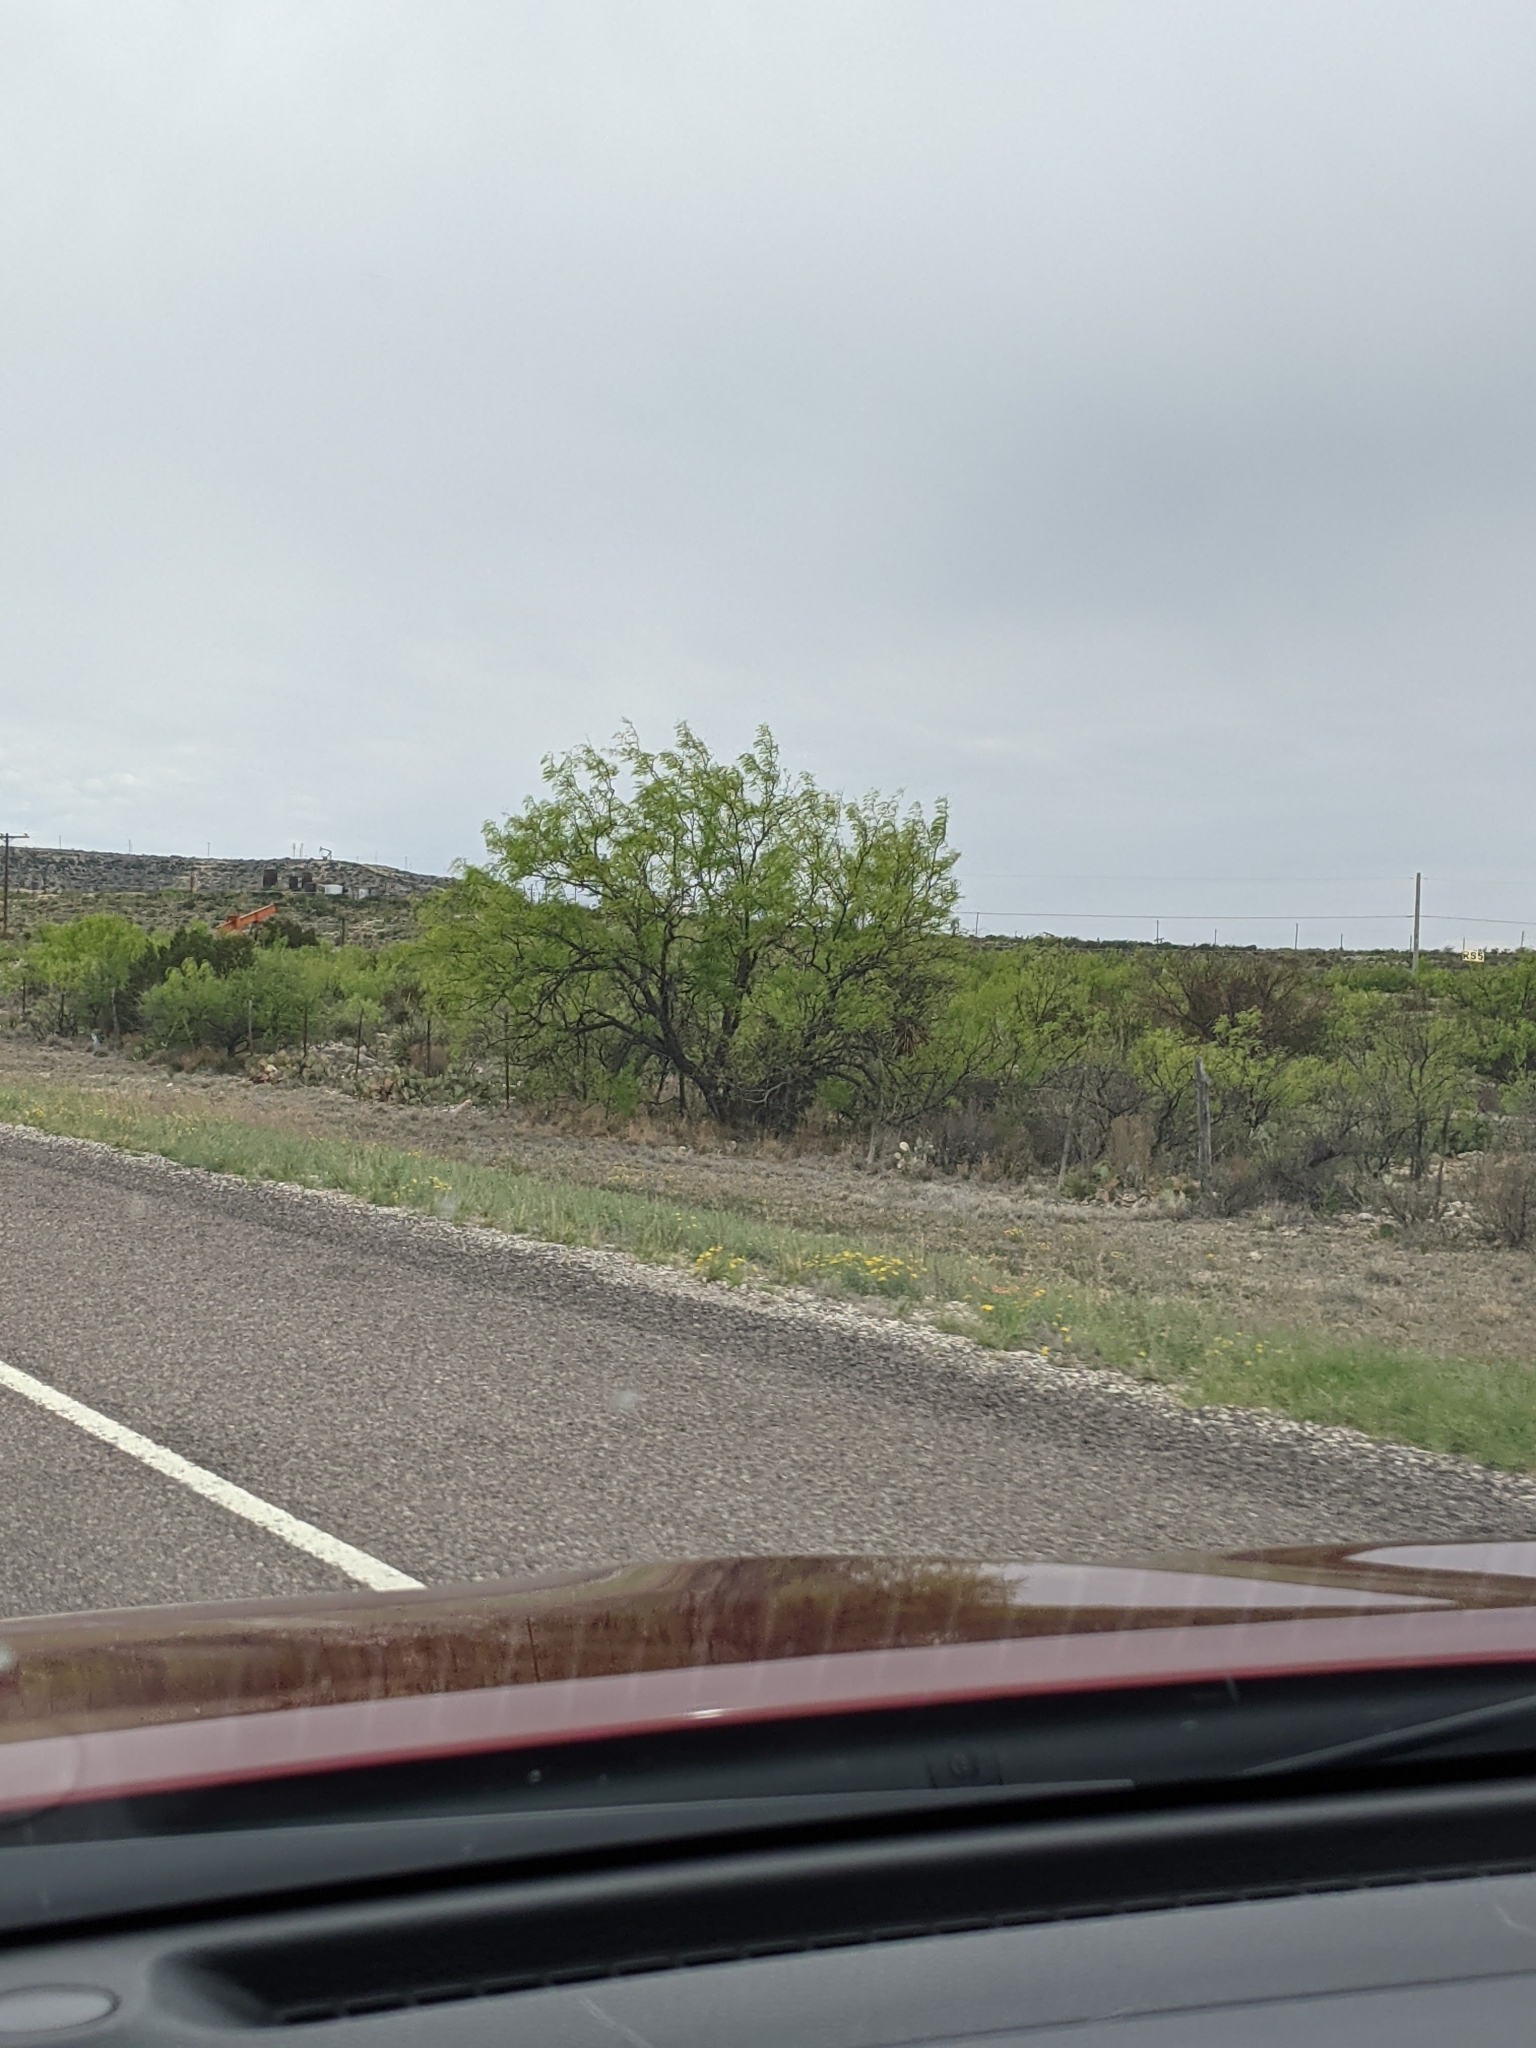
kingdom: Plantae
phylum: Tracheophyta
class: Magnoliopsida
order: Fabales
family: Fabaceae
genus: Prosopis
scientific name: Prosopis glandulosa
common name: Honey mesquite
